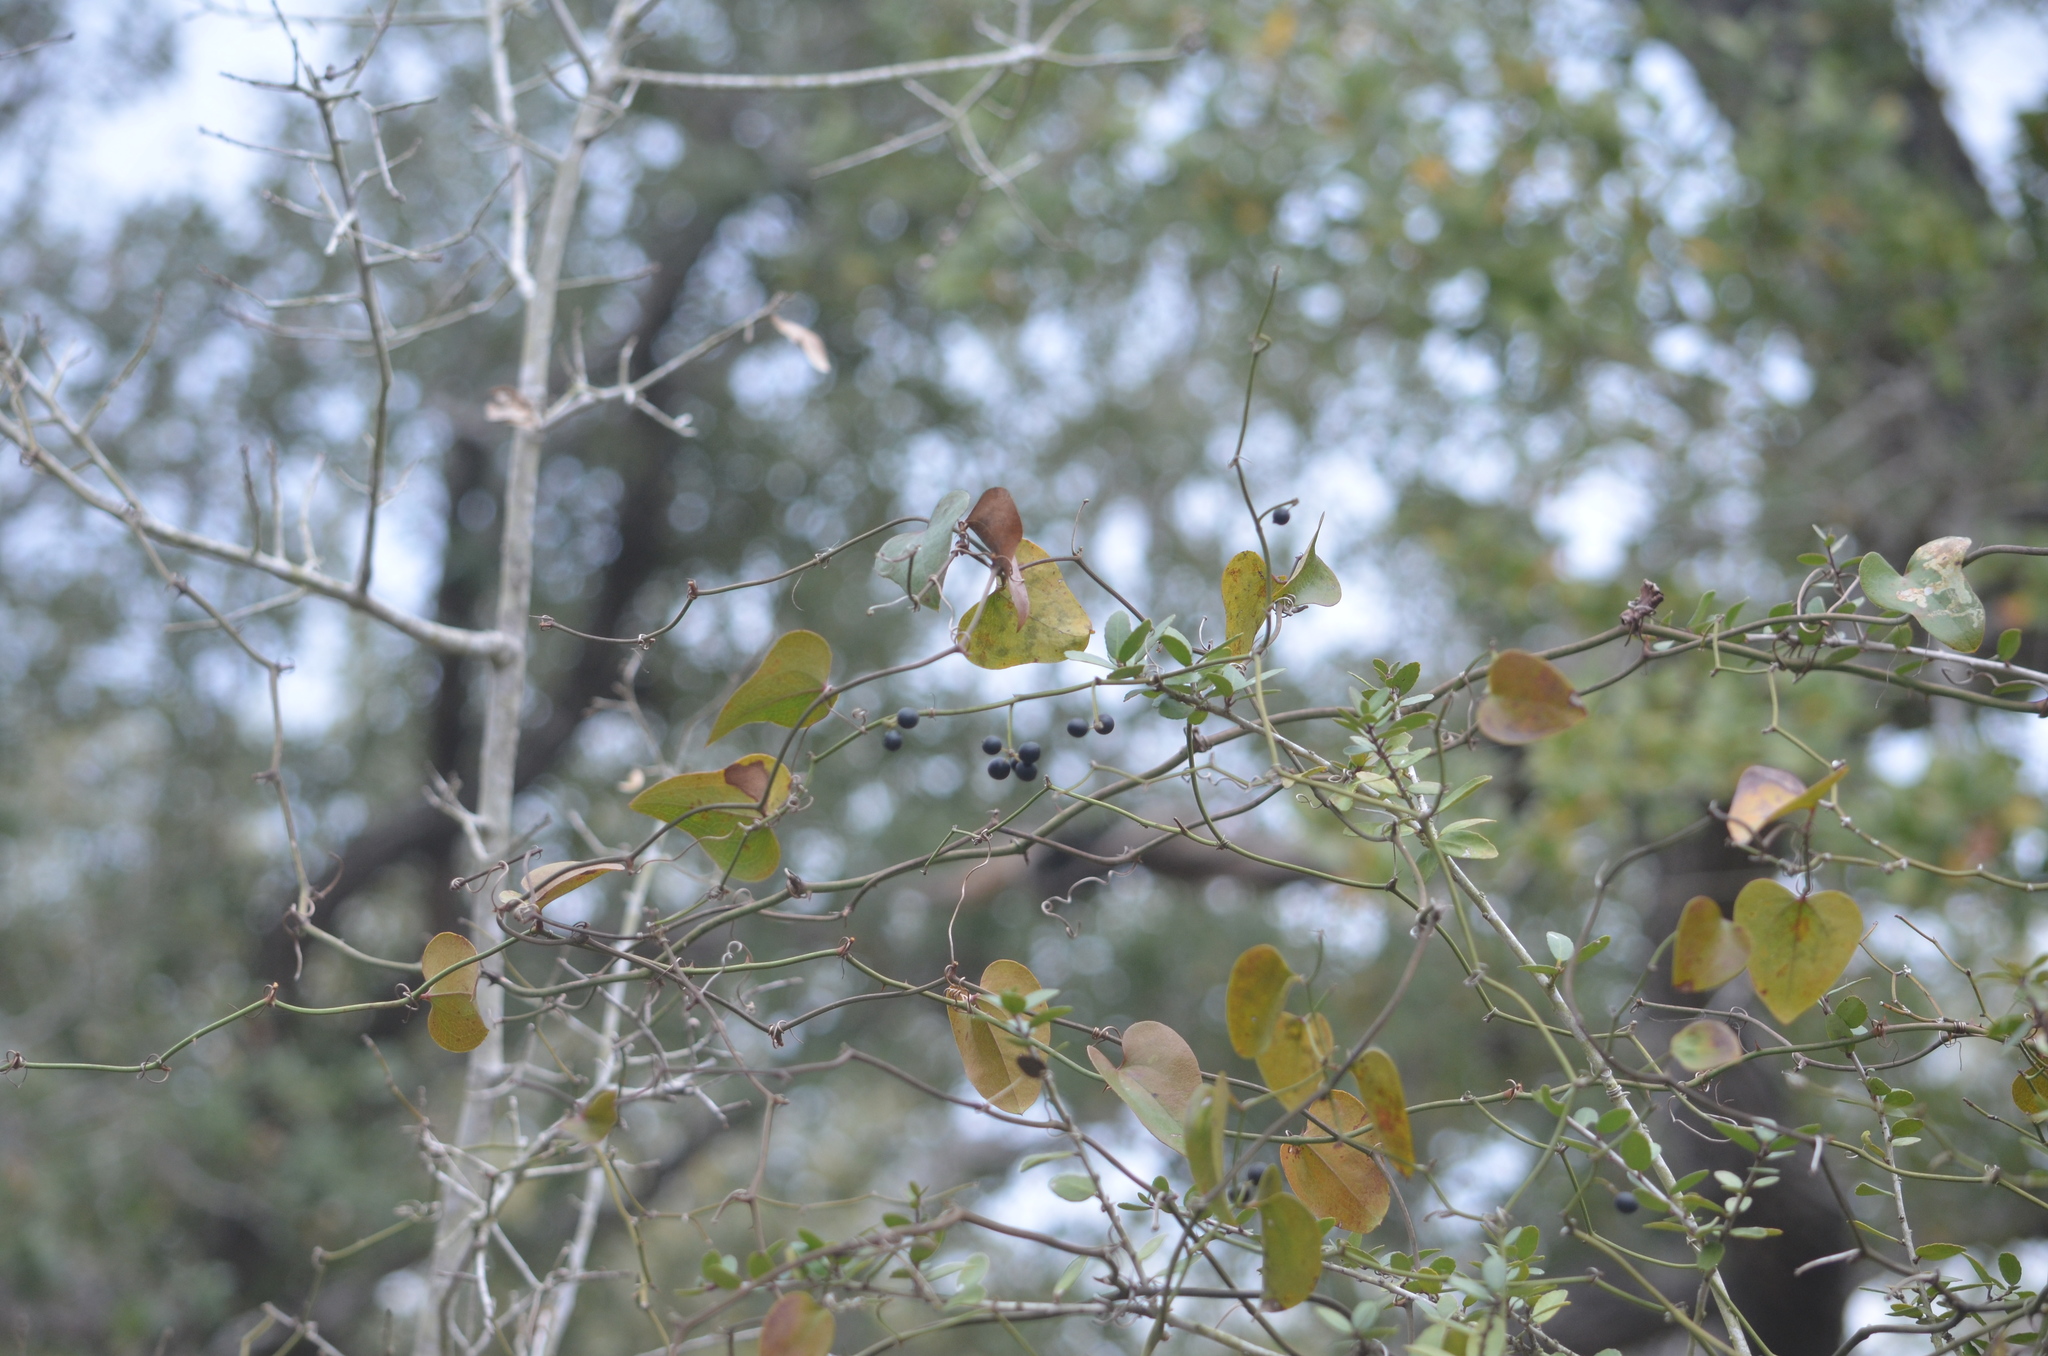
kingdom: Plantae
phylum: Tracheophyta
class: Liliopsida
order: Liliales
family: Smilacaceae
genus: Smilax
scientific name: Smilax bona-nox
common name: Catbrier
